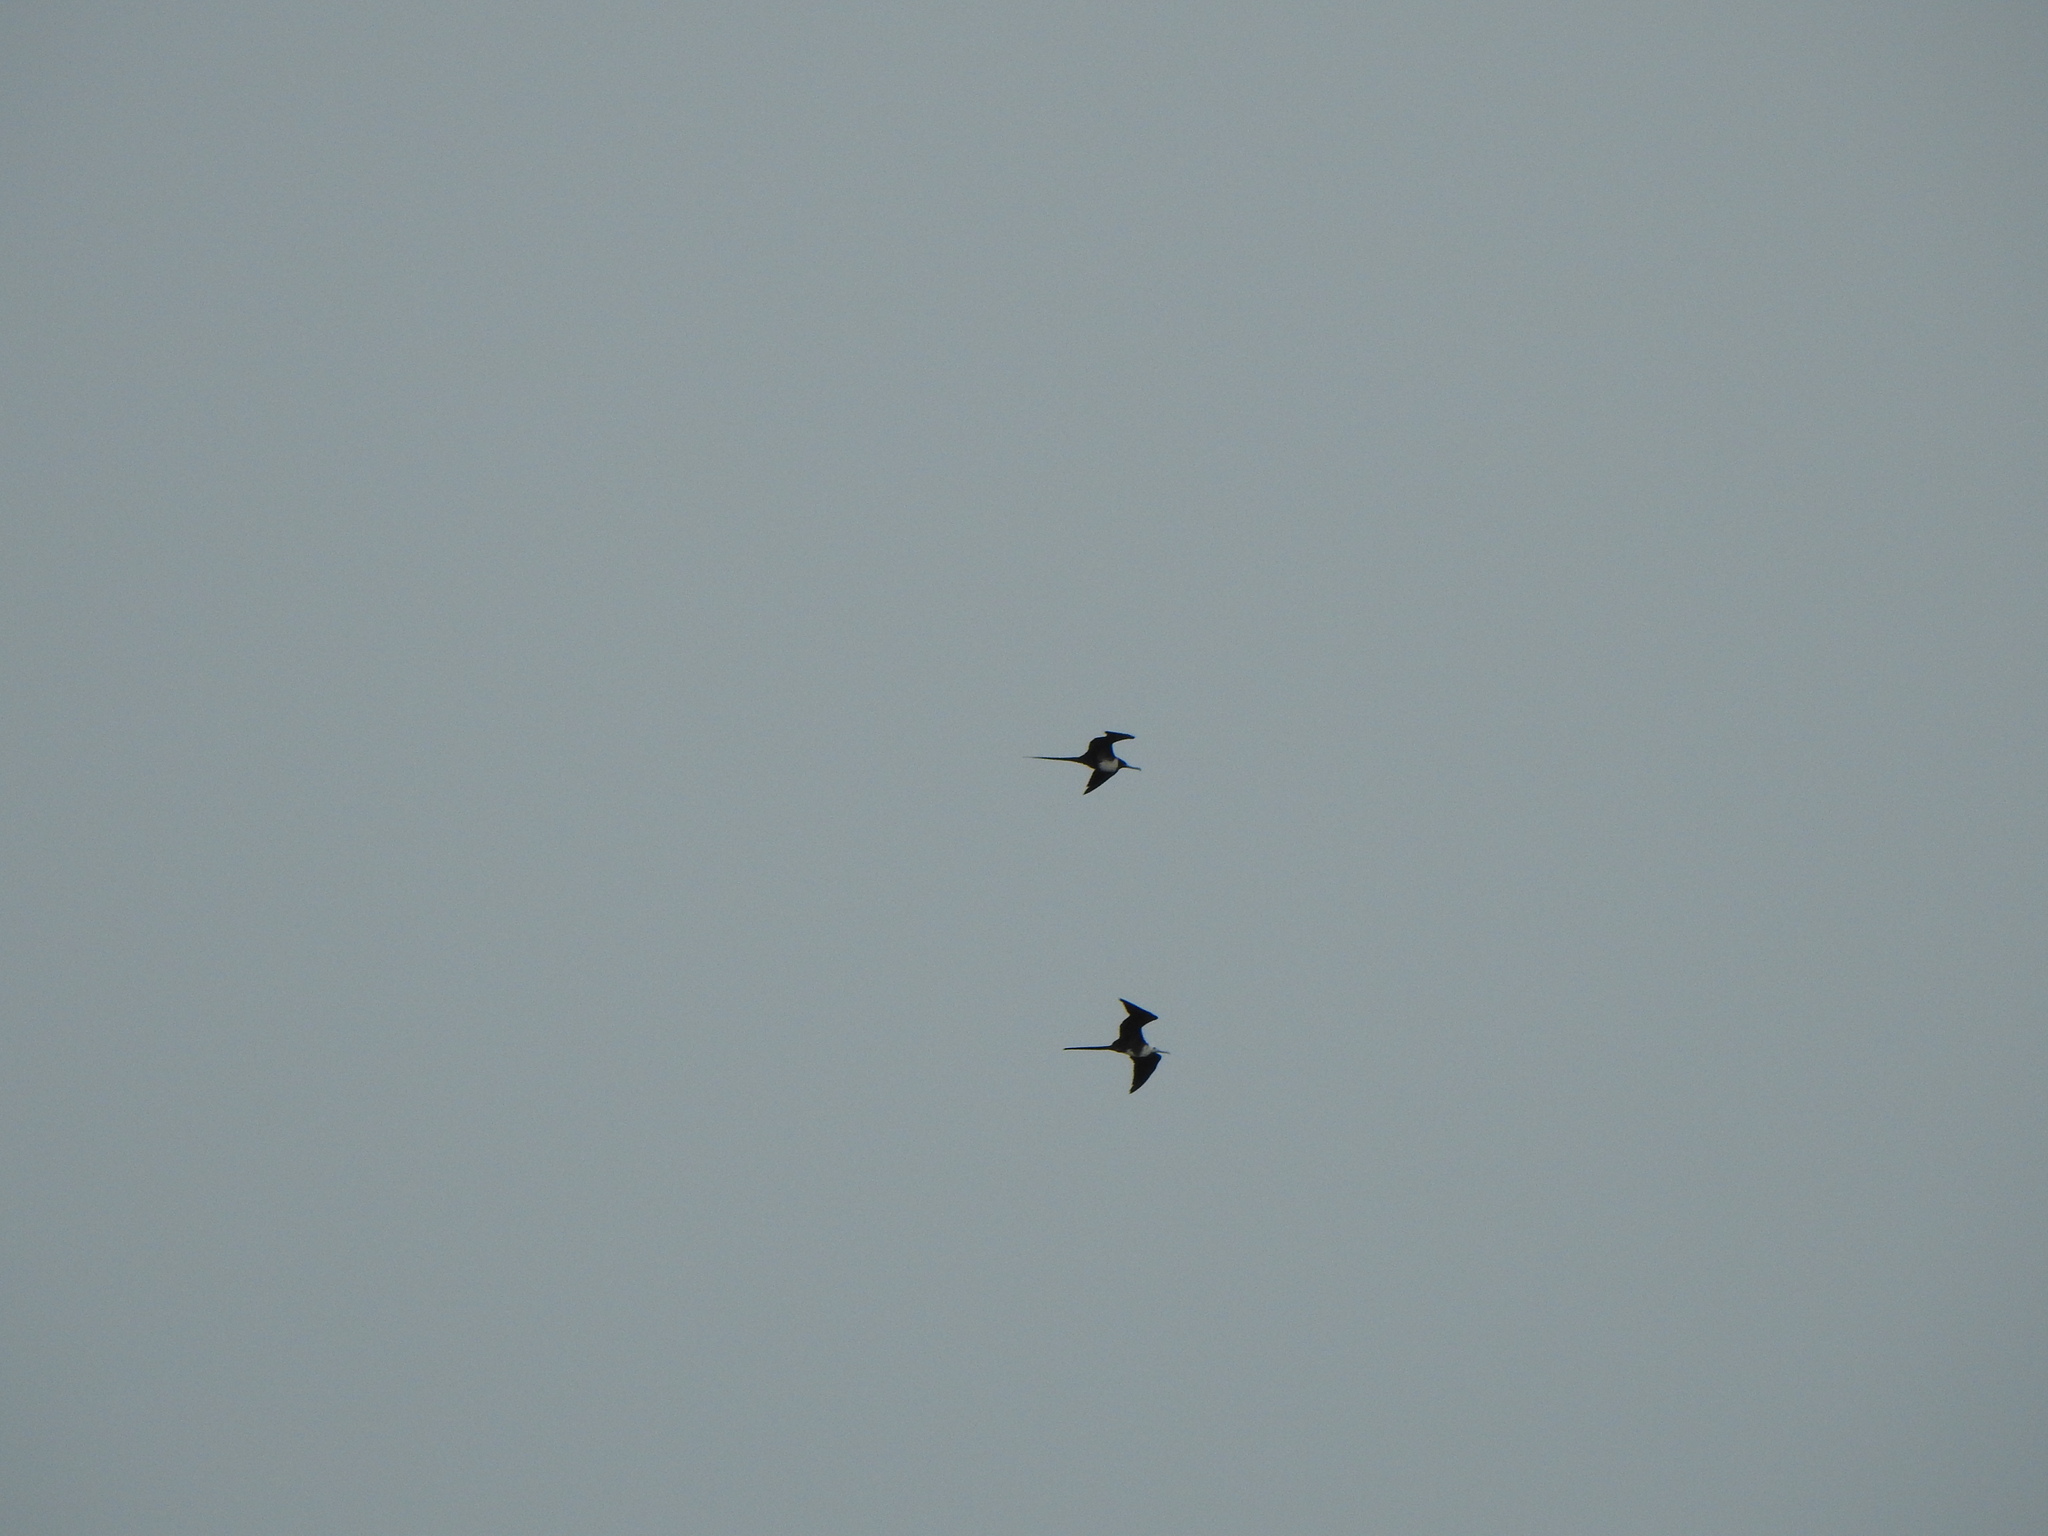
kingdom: Animalia
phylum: Chordata
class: Aves
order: Suliformes
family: Fregatidae
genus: Fregata
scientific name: Fregata magnificens
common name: Magnificent frigatebird
